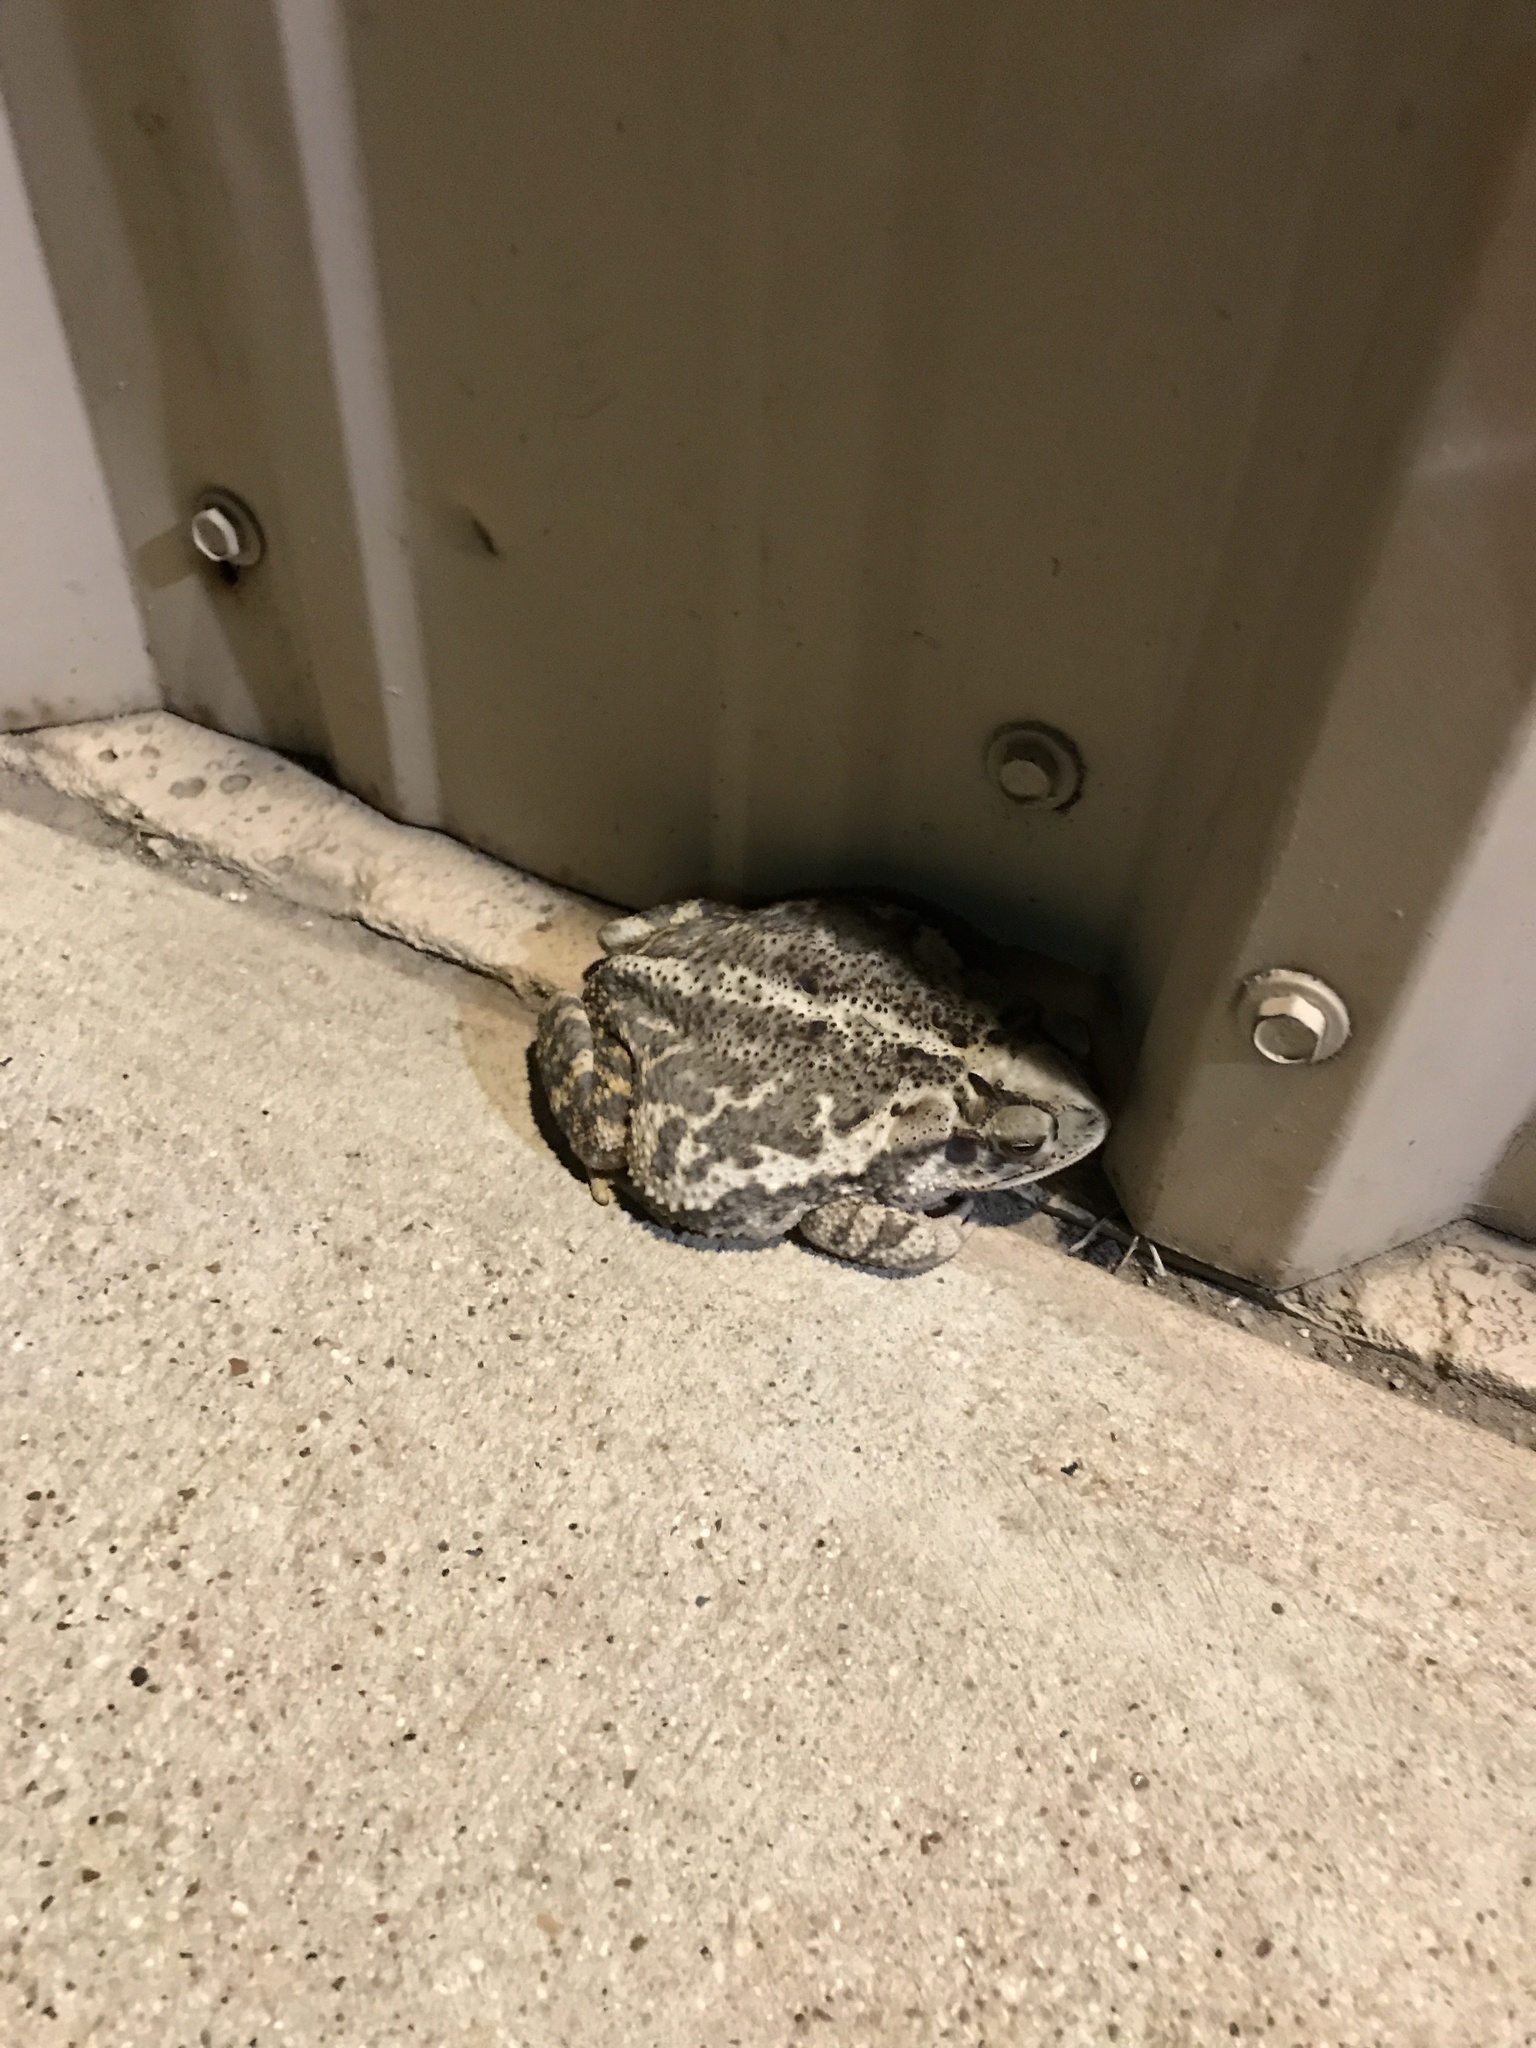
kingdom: Animalia
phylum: Chordata
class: Amphibia
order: Anura
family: Bufonidae
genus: Incilius
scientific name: Incilius nebulifer
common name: Gulf coast toad
